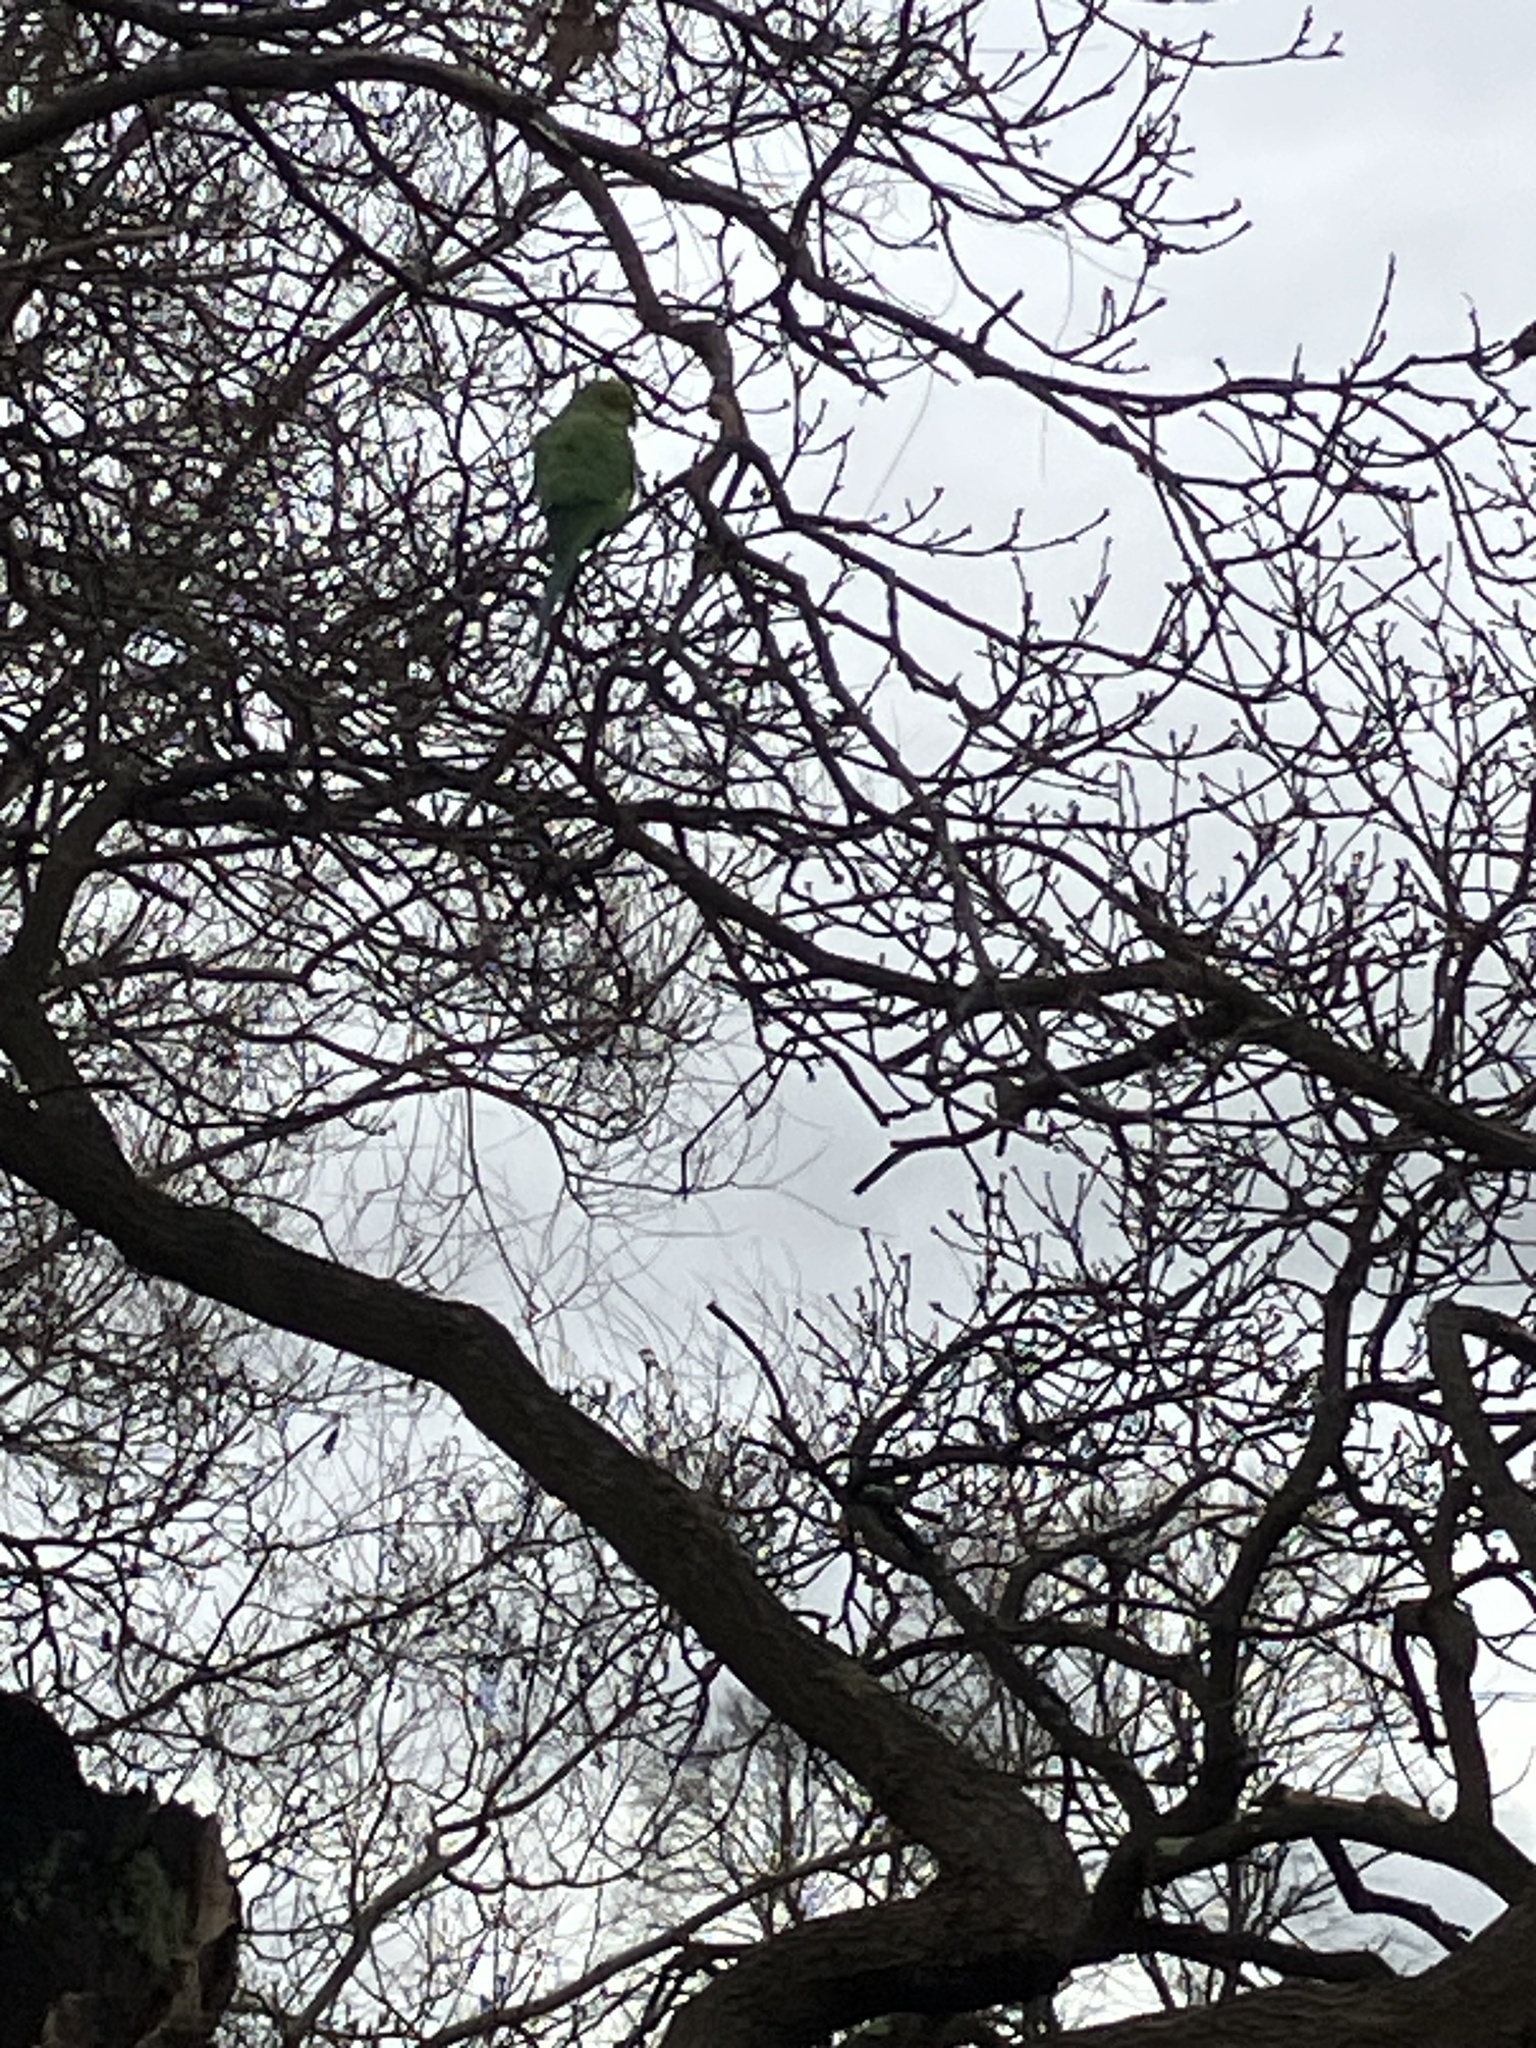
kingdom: Animalia
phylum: Chordata
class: Aves
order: Psittaciformes
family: Psittacidae
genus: Psittacula
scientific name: Psittacula krameri
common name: Rose-ringed parakeet
